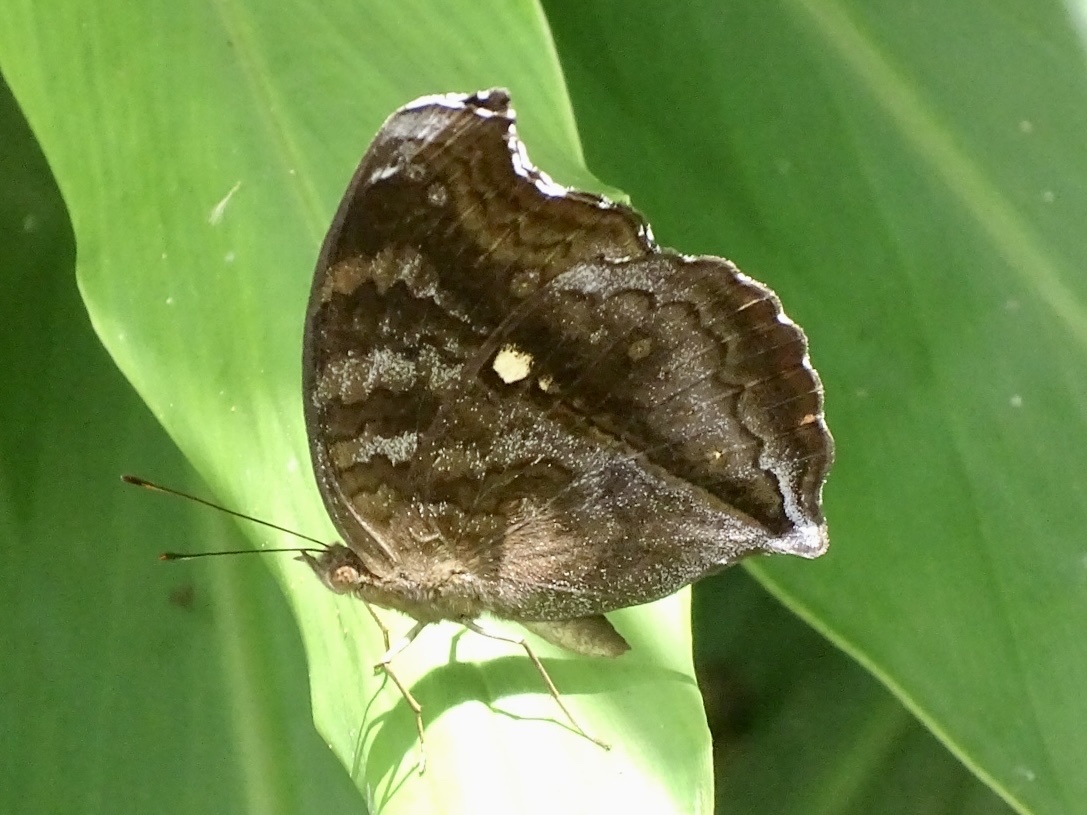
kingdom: Animalia
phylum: Arthropoda
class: Insecta
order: Lepidoptera
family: Nymphalidae
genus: Junonia
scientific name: Junonia iphita
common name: Chocolate pansy
